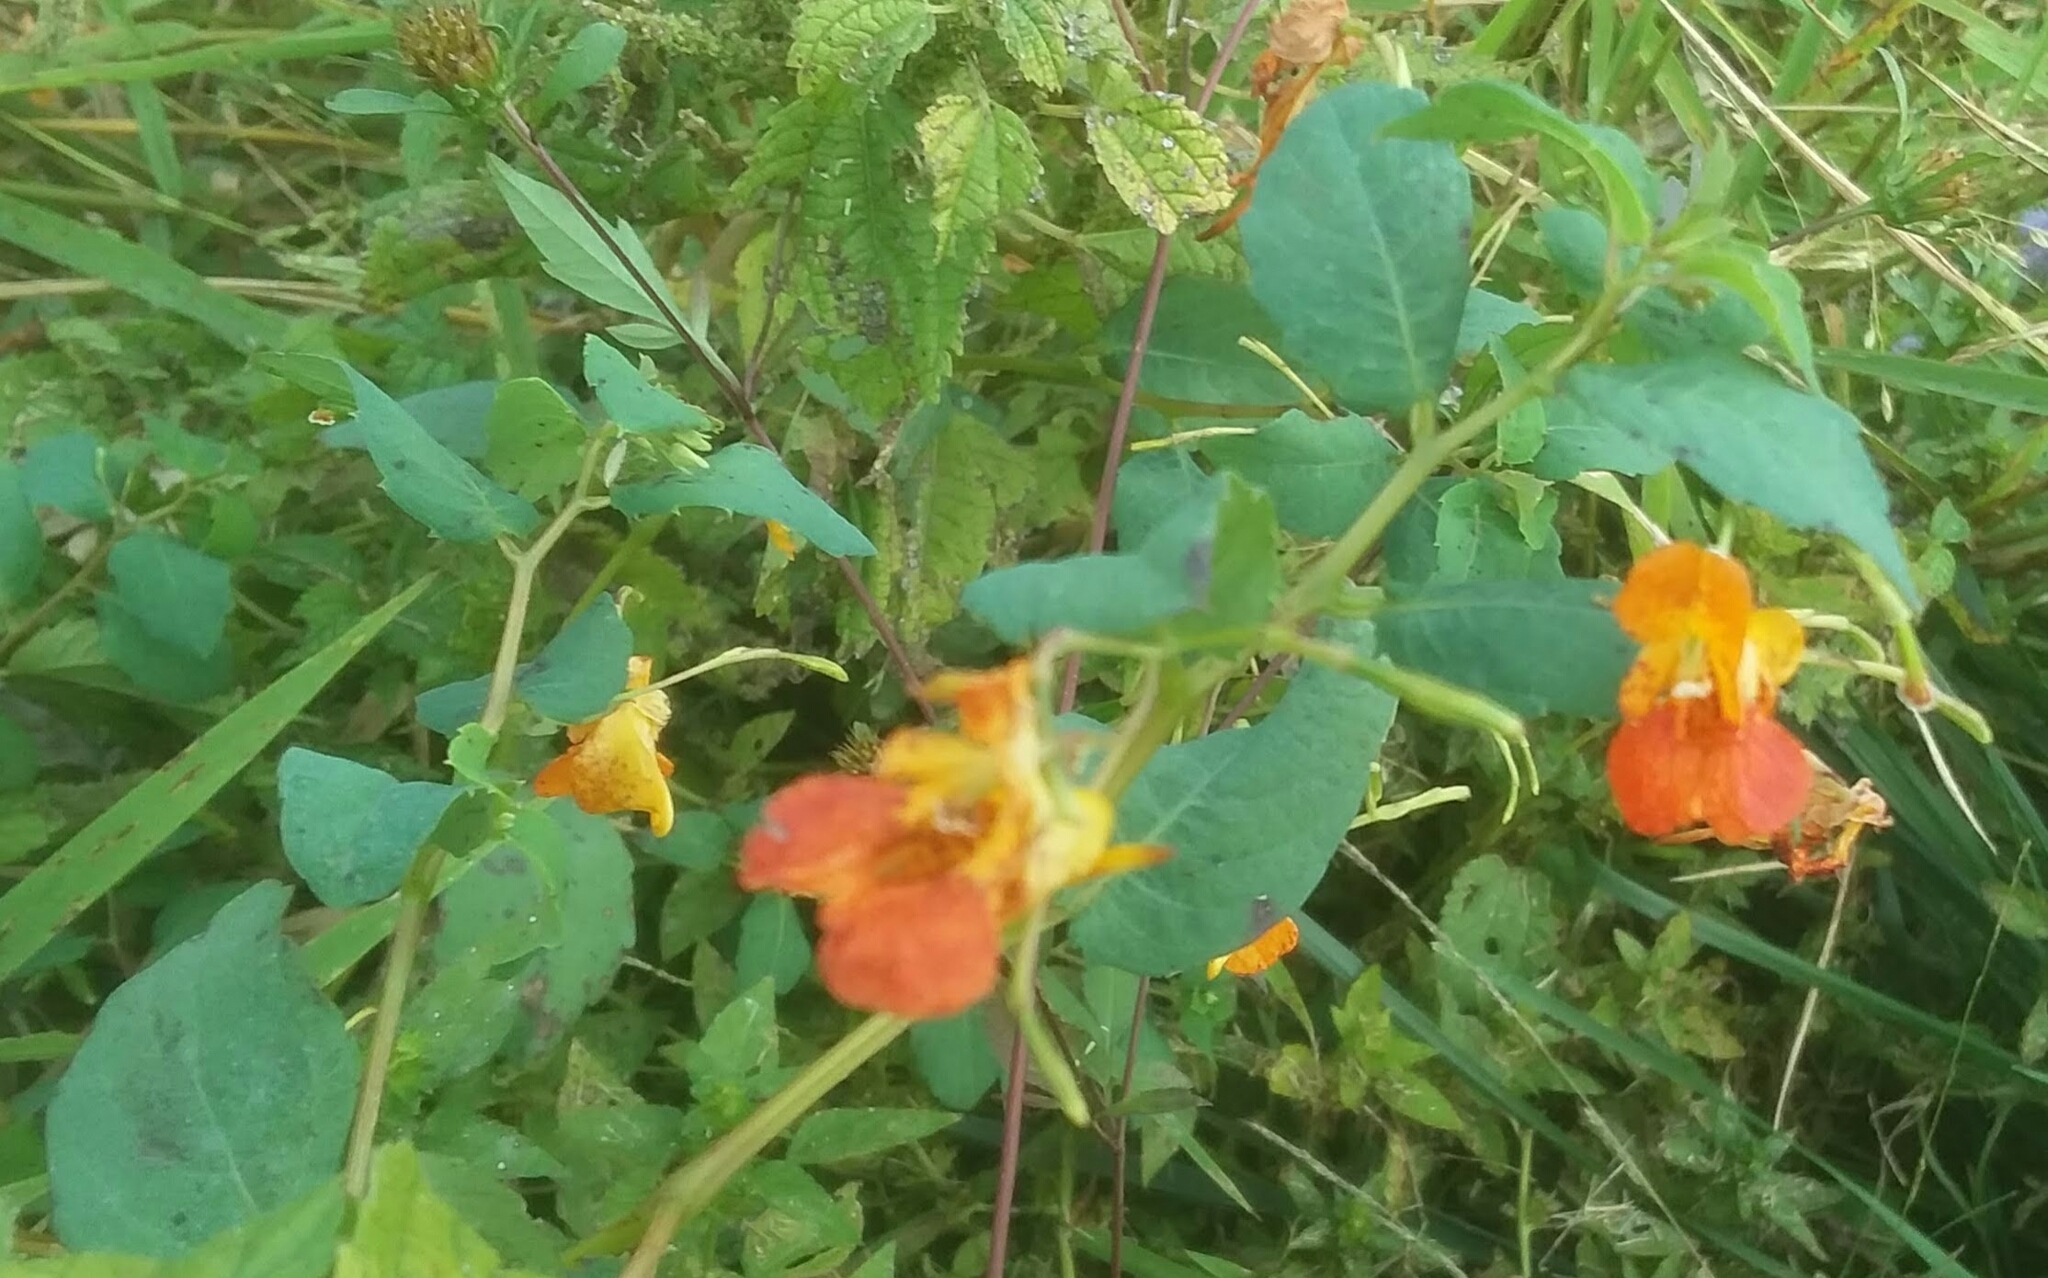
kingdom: Plantae
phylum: Tracheophyta
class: Magnoliopsida
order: Ericales
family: Balsaminaceae
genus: Impatiens
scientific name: Impatiens capensis
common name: Orange balsam
